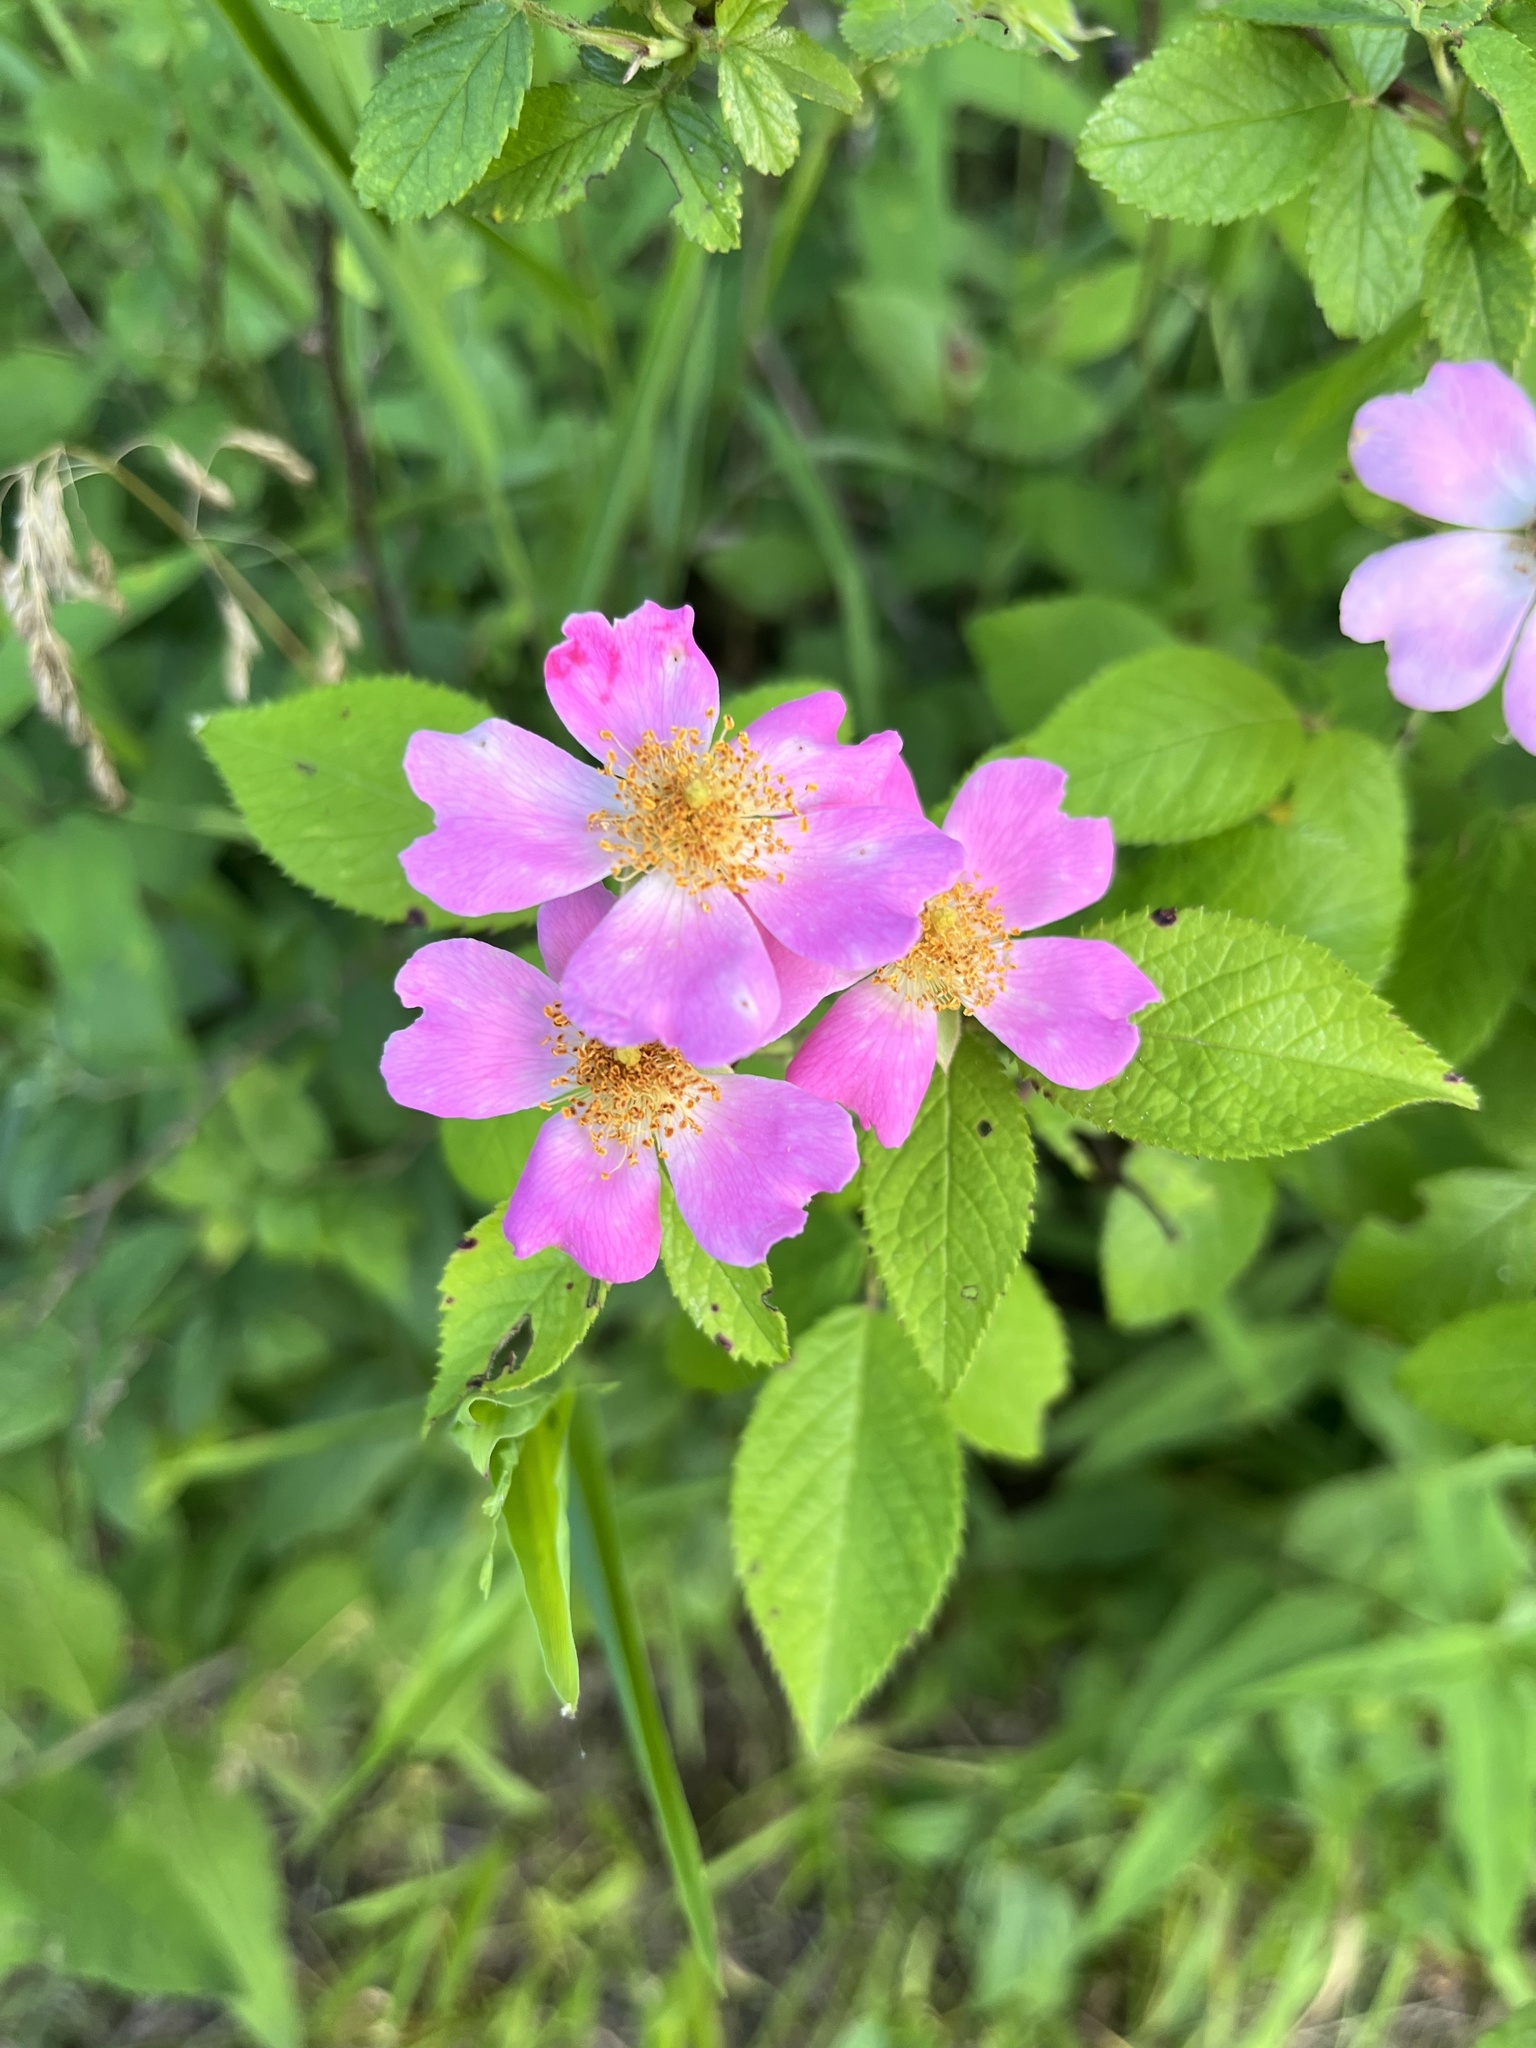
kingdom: Plantae
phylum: Tracheophyta
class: Magnoliopsida
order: Rosales
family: Rosaceae
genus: Rosa
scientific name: Rosa setigera
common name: Prairie rose
